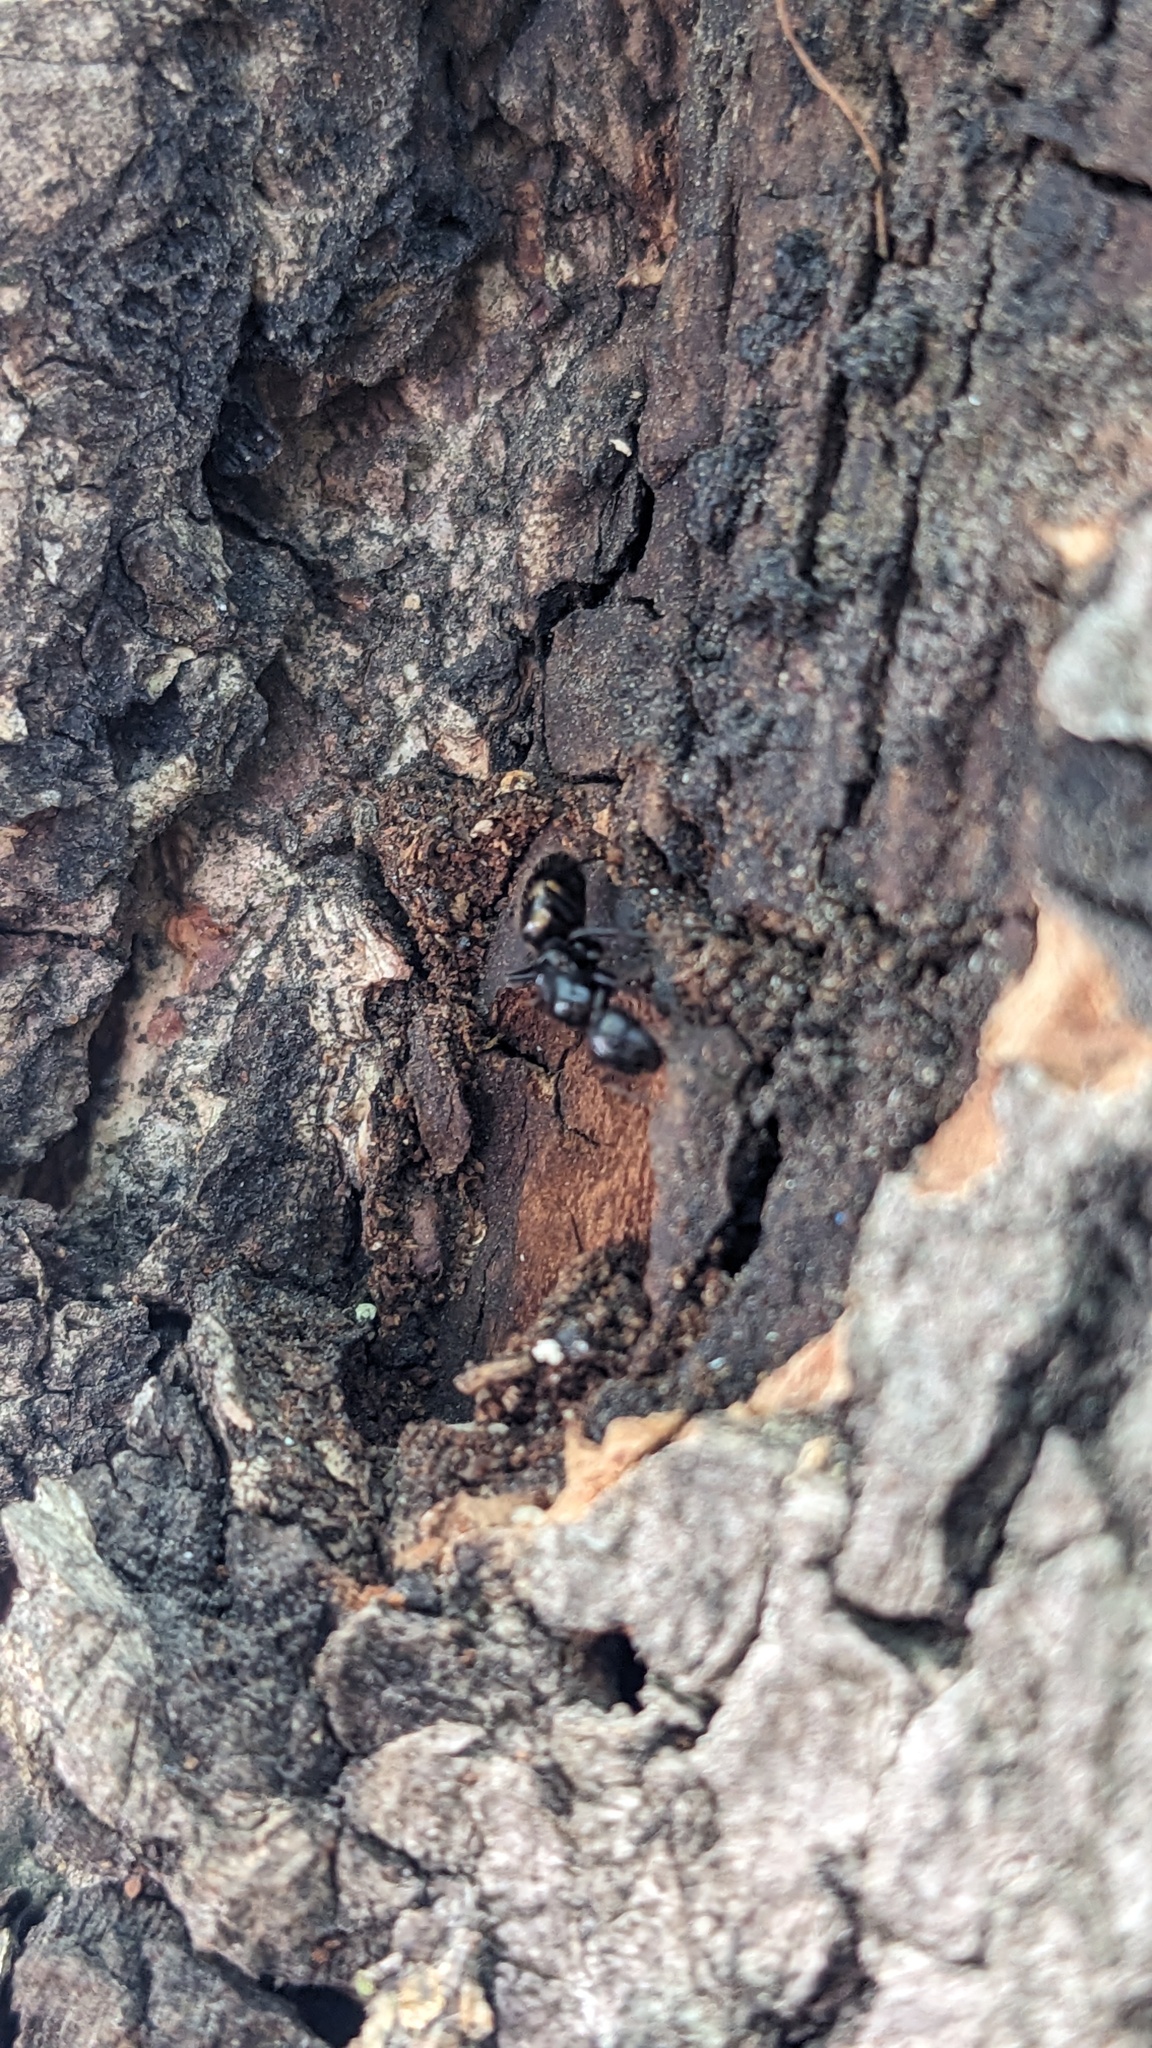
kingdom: Animalia
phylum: Arthropoda
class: Insecta
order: Hymenoptera
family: Formicidae
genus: Camponotus
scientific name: Camponotus quadrinotatus
